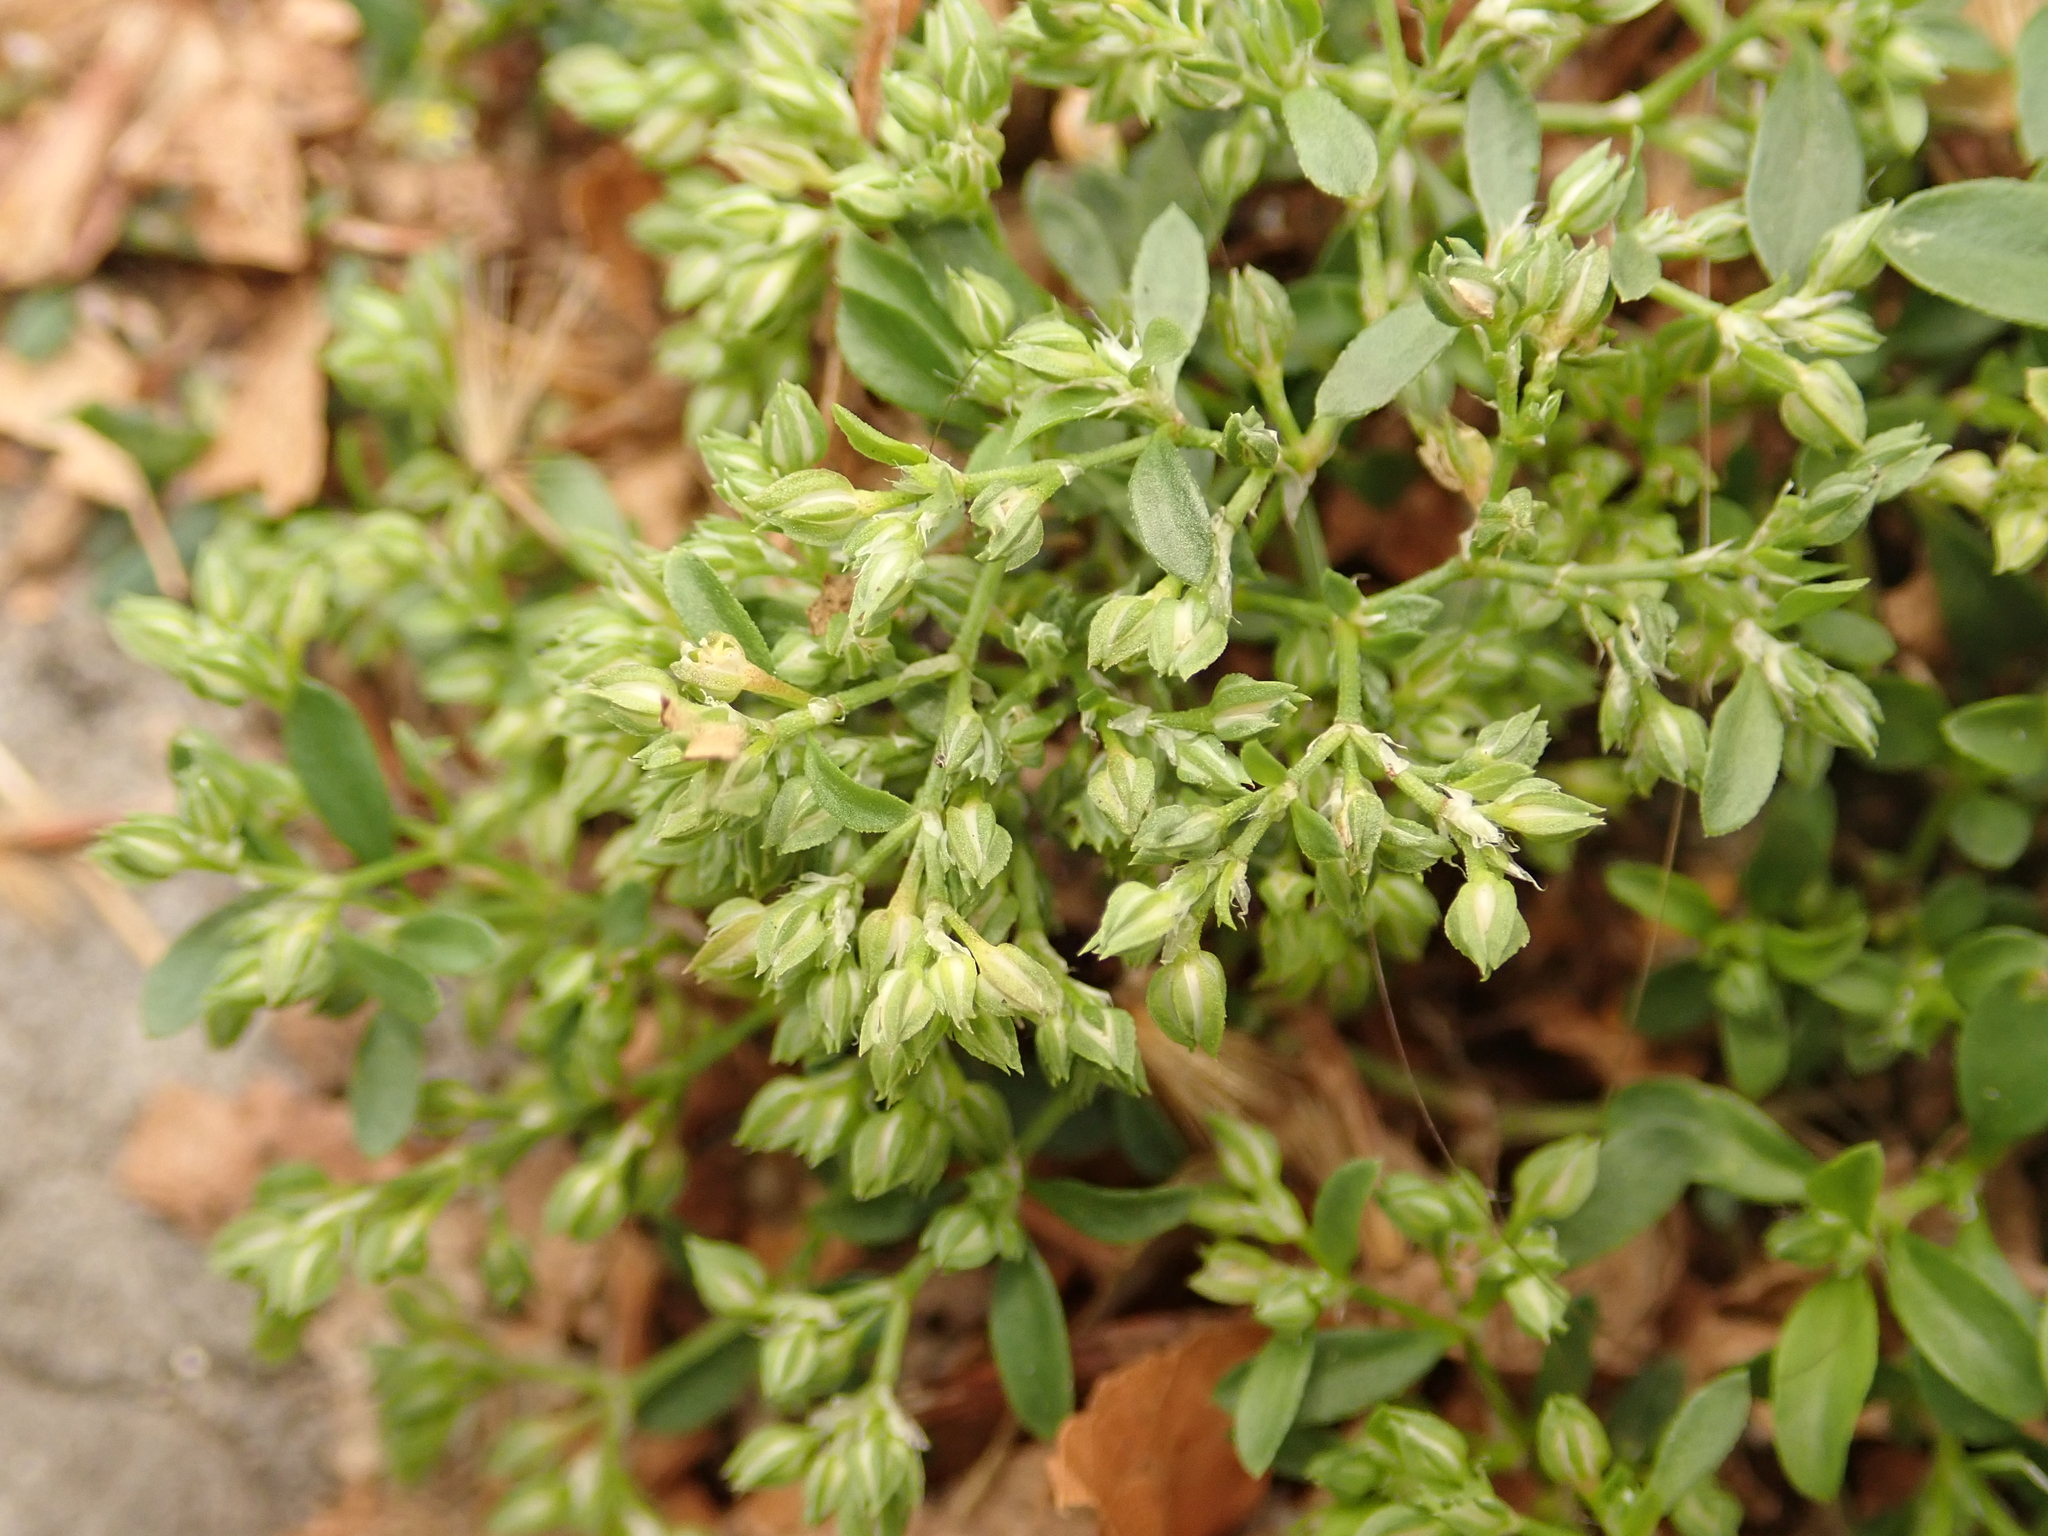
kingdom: Plantae
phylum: Tracheophyta
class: Magnoliopsida
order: Caryophyllales
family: Caryophyllaceae
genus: Polycarpon
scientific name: Polycarpon tetraphyllum
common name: Four-leaved all-seed
